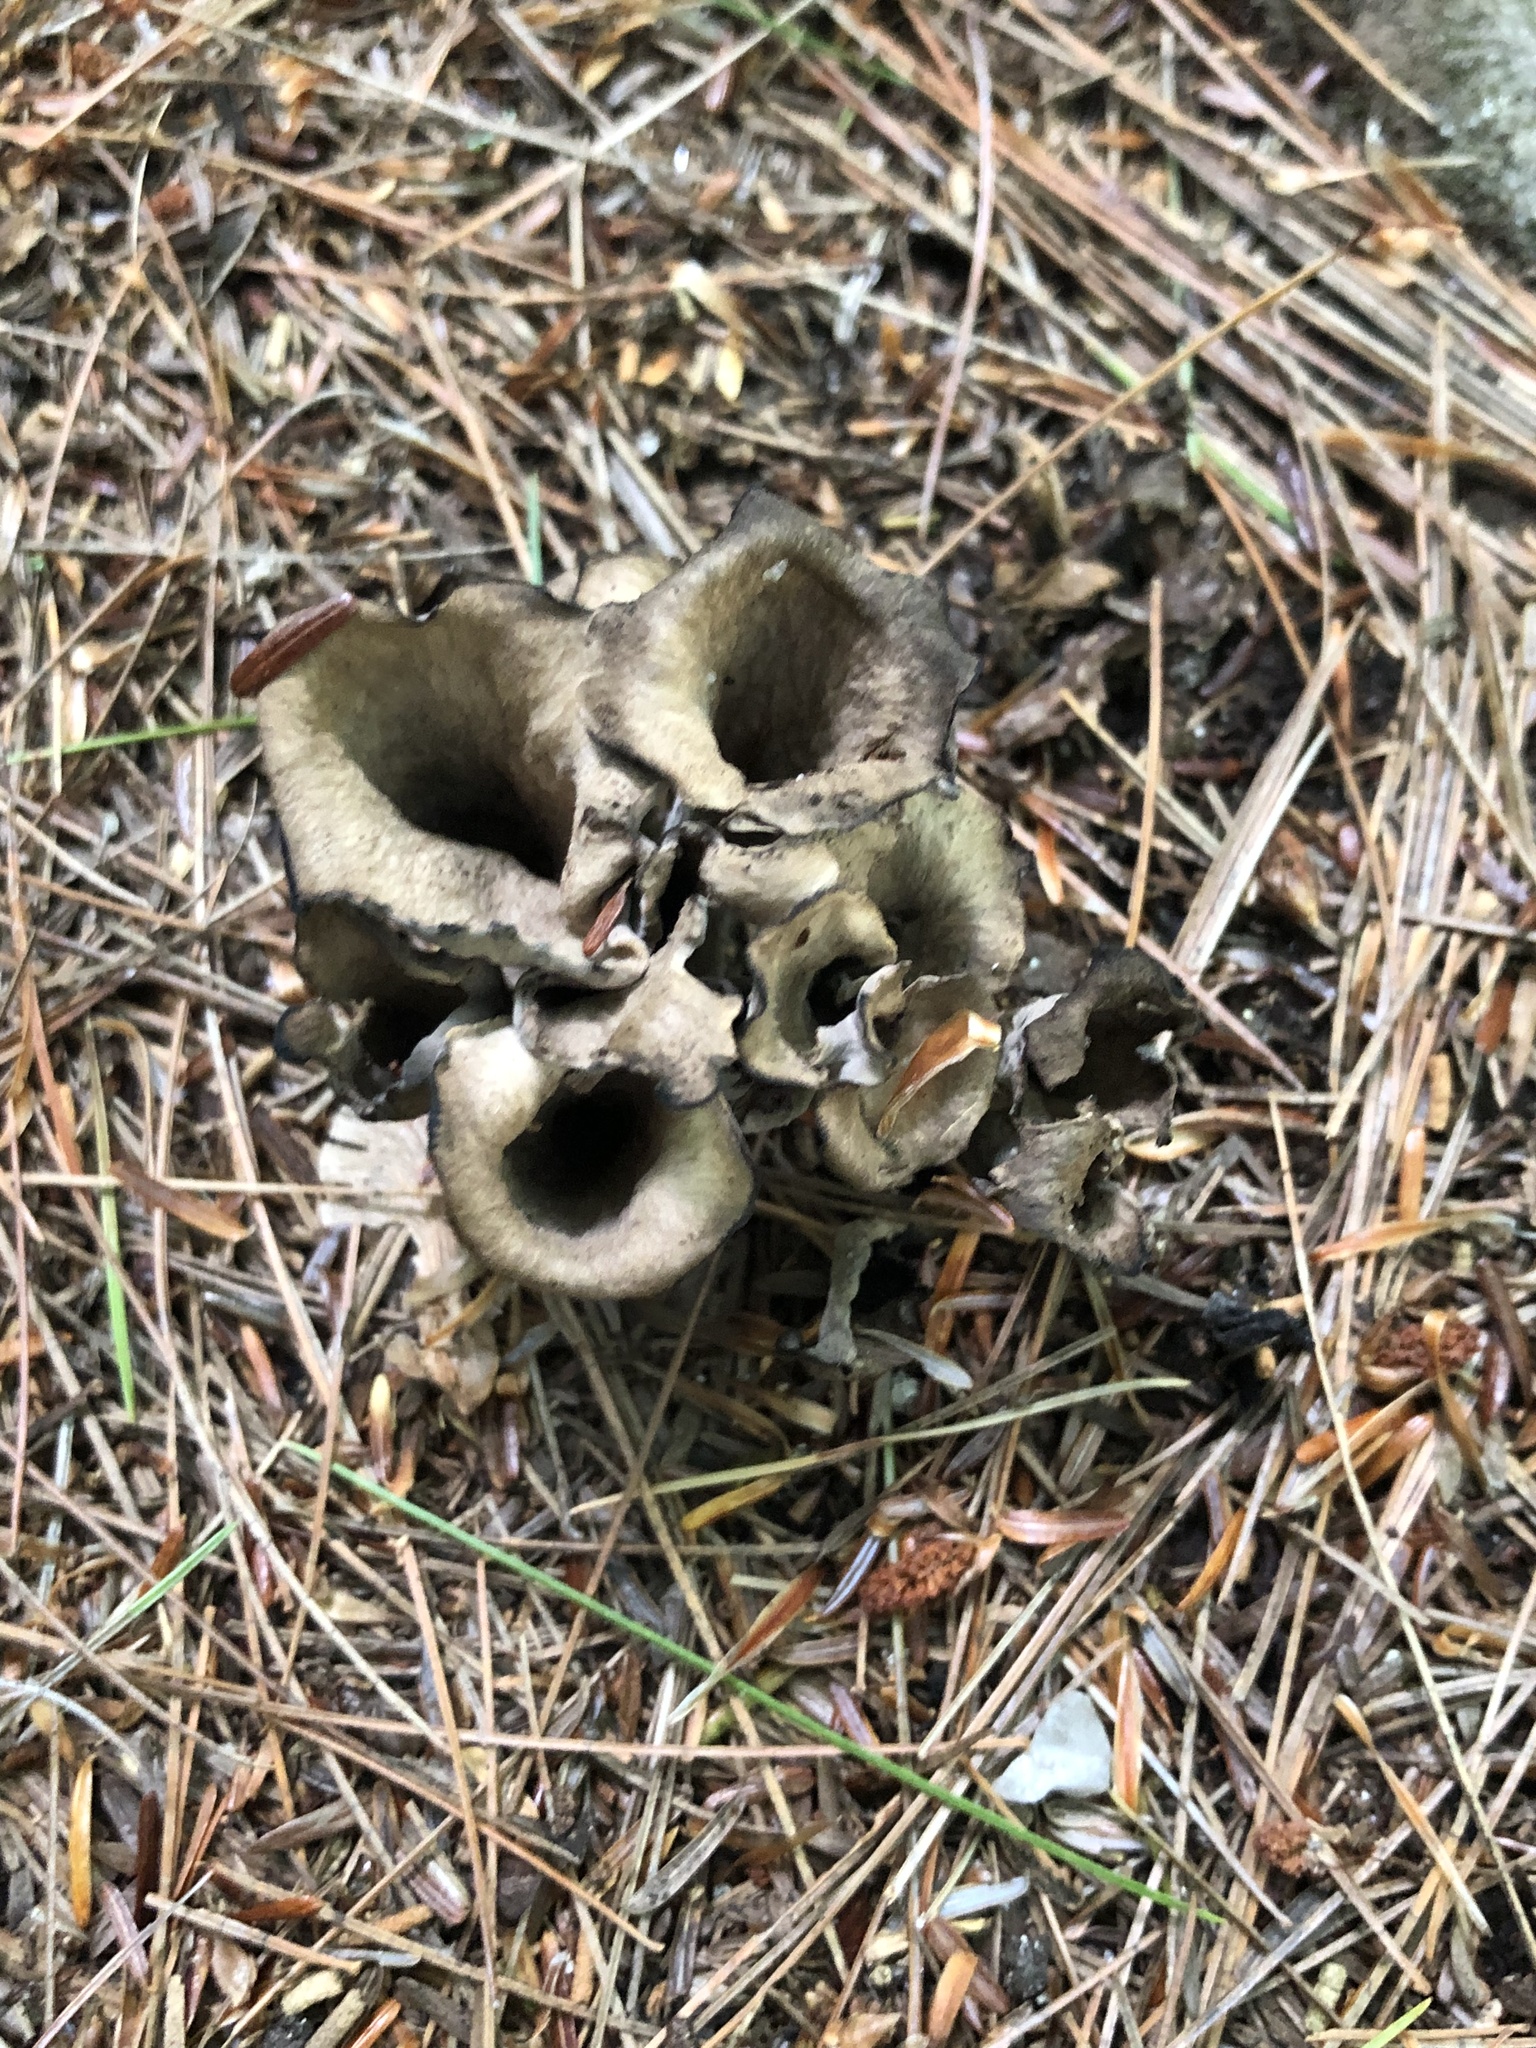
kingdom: Fungi
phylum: Basidiomycota
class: Agaricomycetes
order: Cantharellales
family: Hydnaceae
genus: Craterellus
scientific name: Craterellus cornucopioides
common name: Horn of plenty
